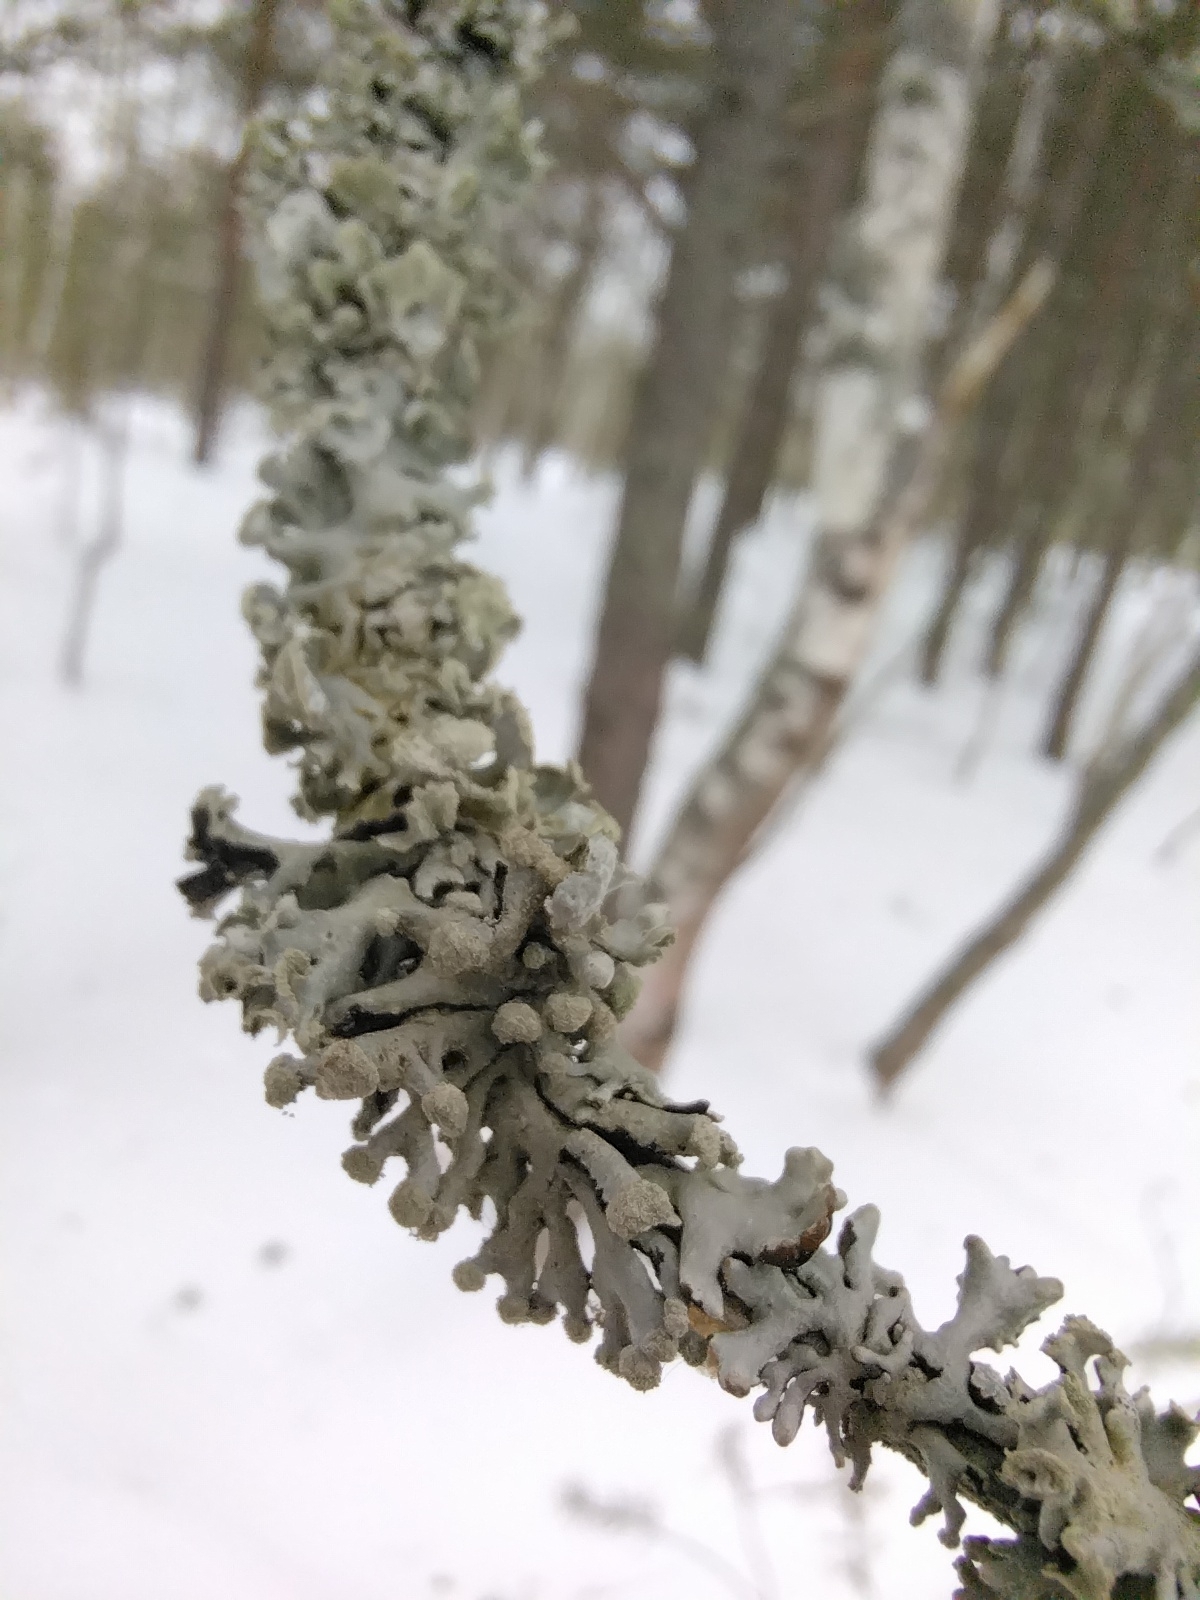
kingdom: Fungi
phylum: Ascomycota
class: Lecanoromycetes
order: Lecanorales
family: Parmeliaceae
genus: Hypogymnia
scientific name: Hypogymnia tubulosa
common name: Powder-headed tube lichen
